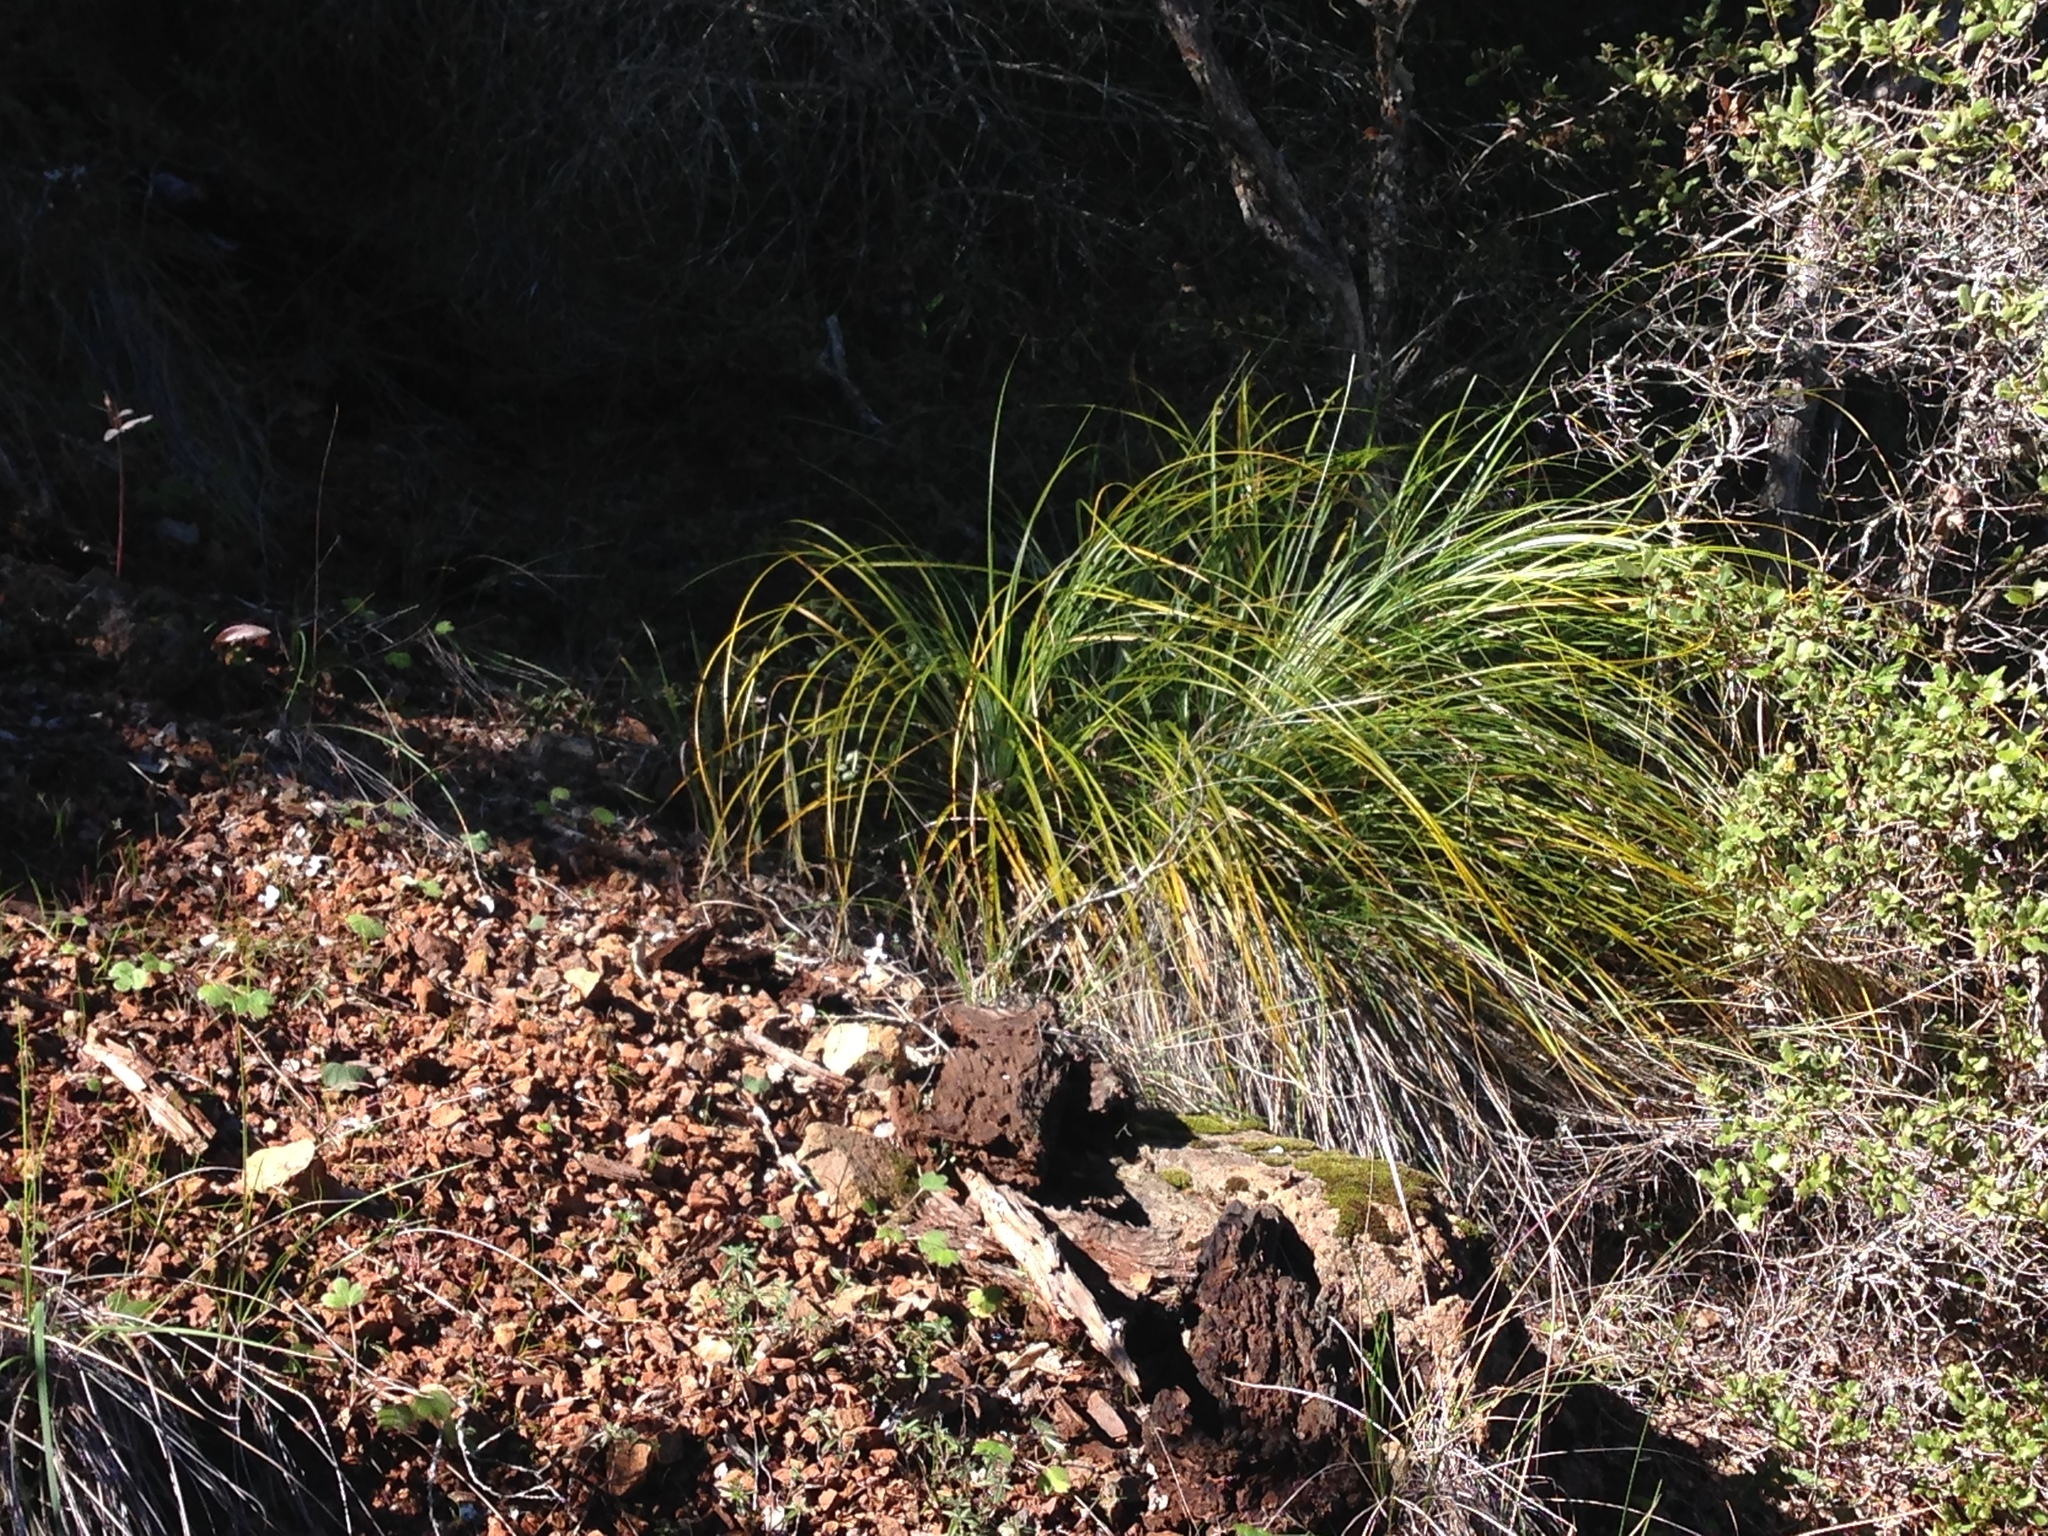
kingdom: Plantae
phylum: Tracheophyta
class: Liliopsida
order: Liliales
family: Melanthiaceae
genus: Xerophyllum
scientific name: Xerophyllum tenax
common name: Bear-grass
